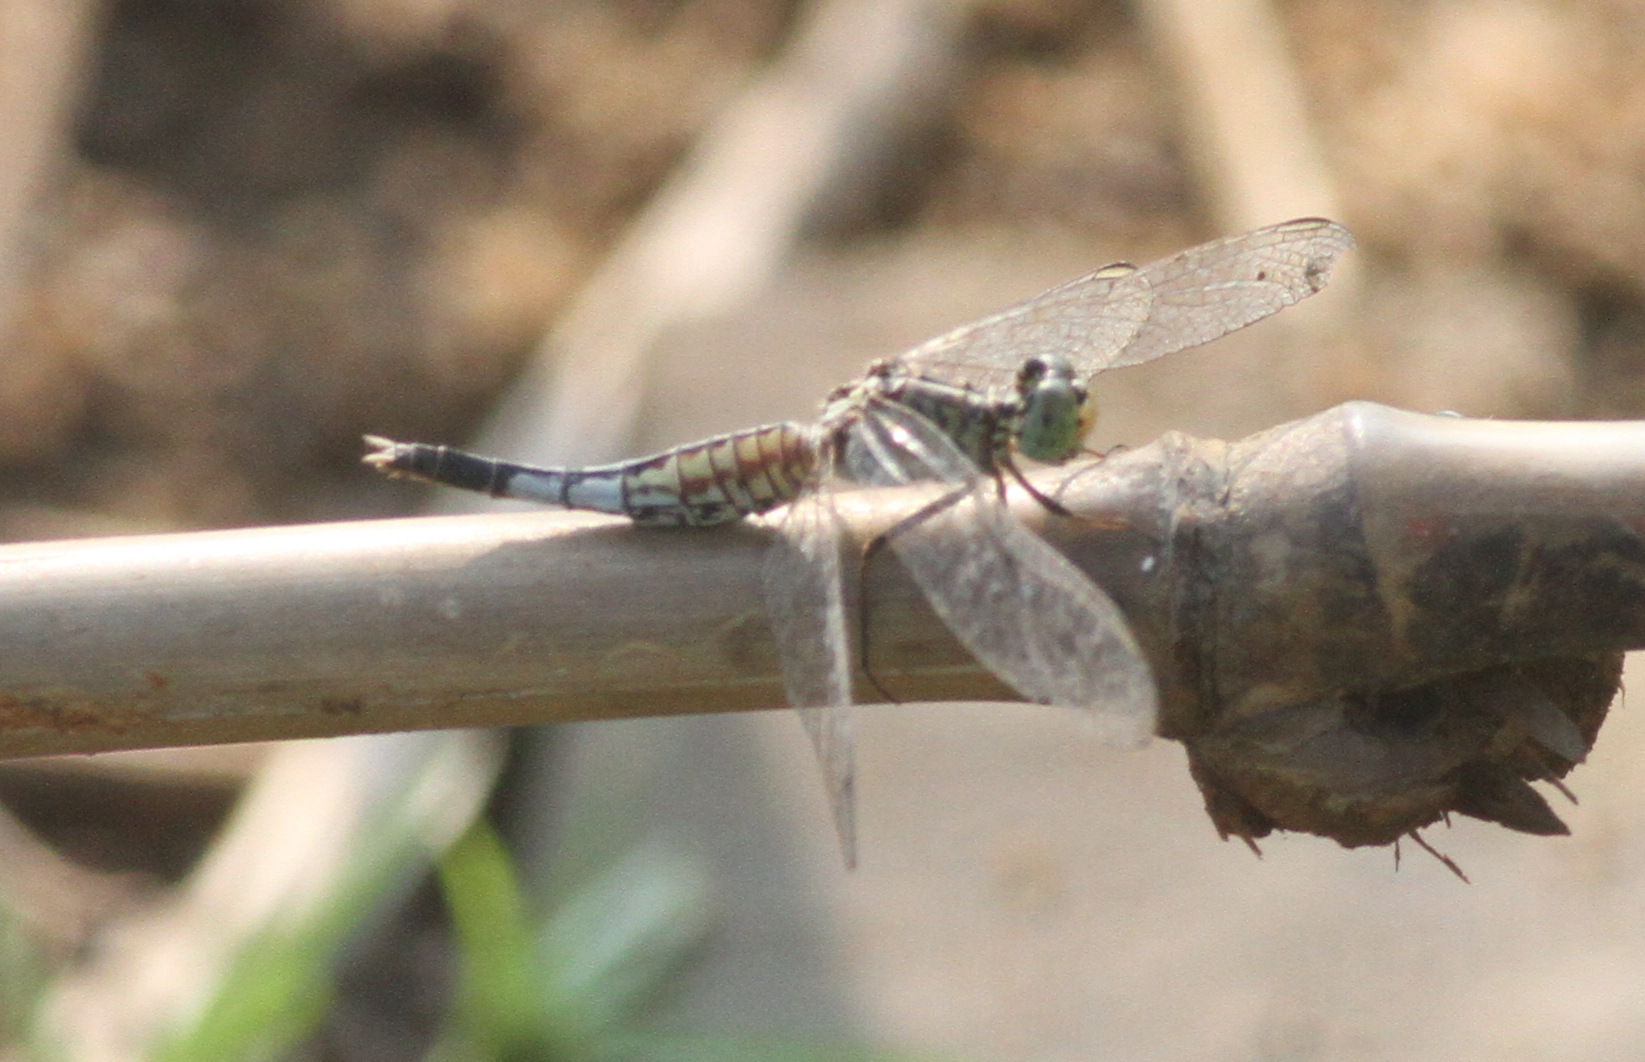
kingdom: Animalia
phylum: Arthropoda
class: Insecta
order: Odonata
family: Libellulidae
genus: Acisoma
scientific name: Acisoma panorpoides
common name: Asian pintail
